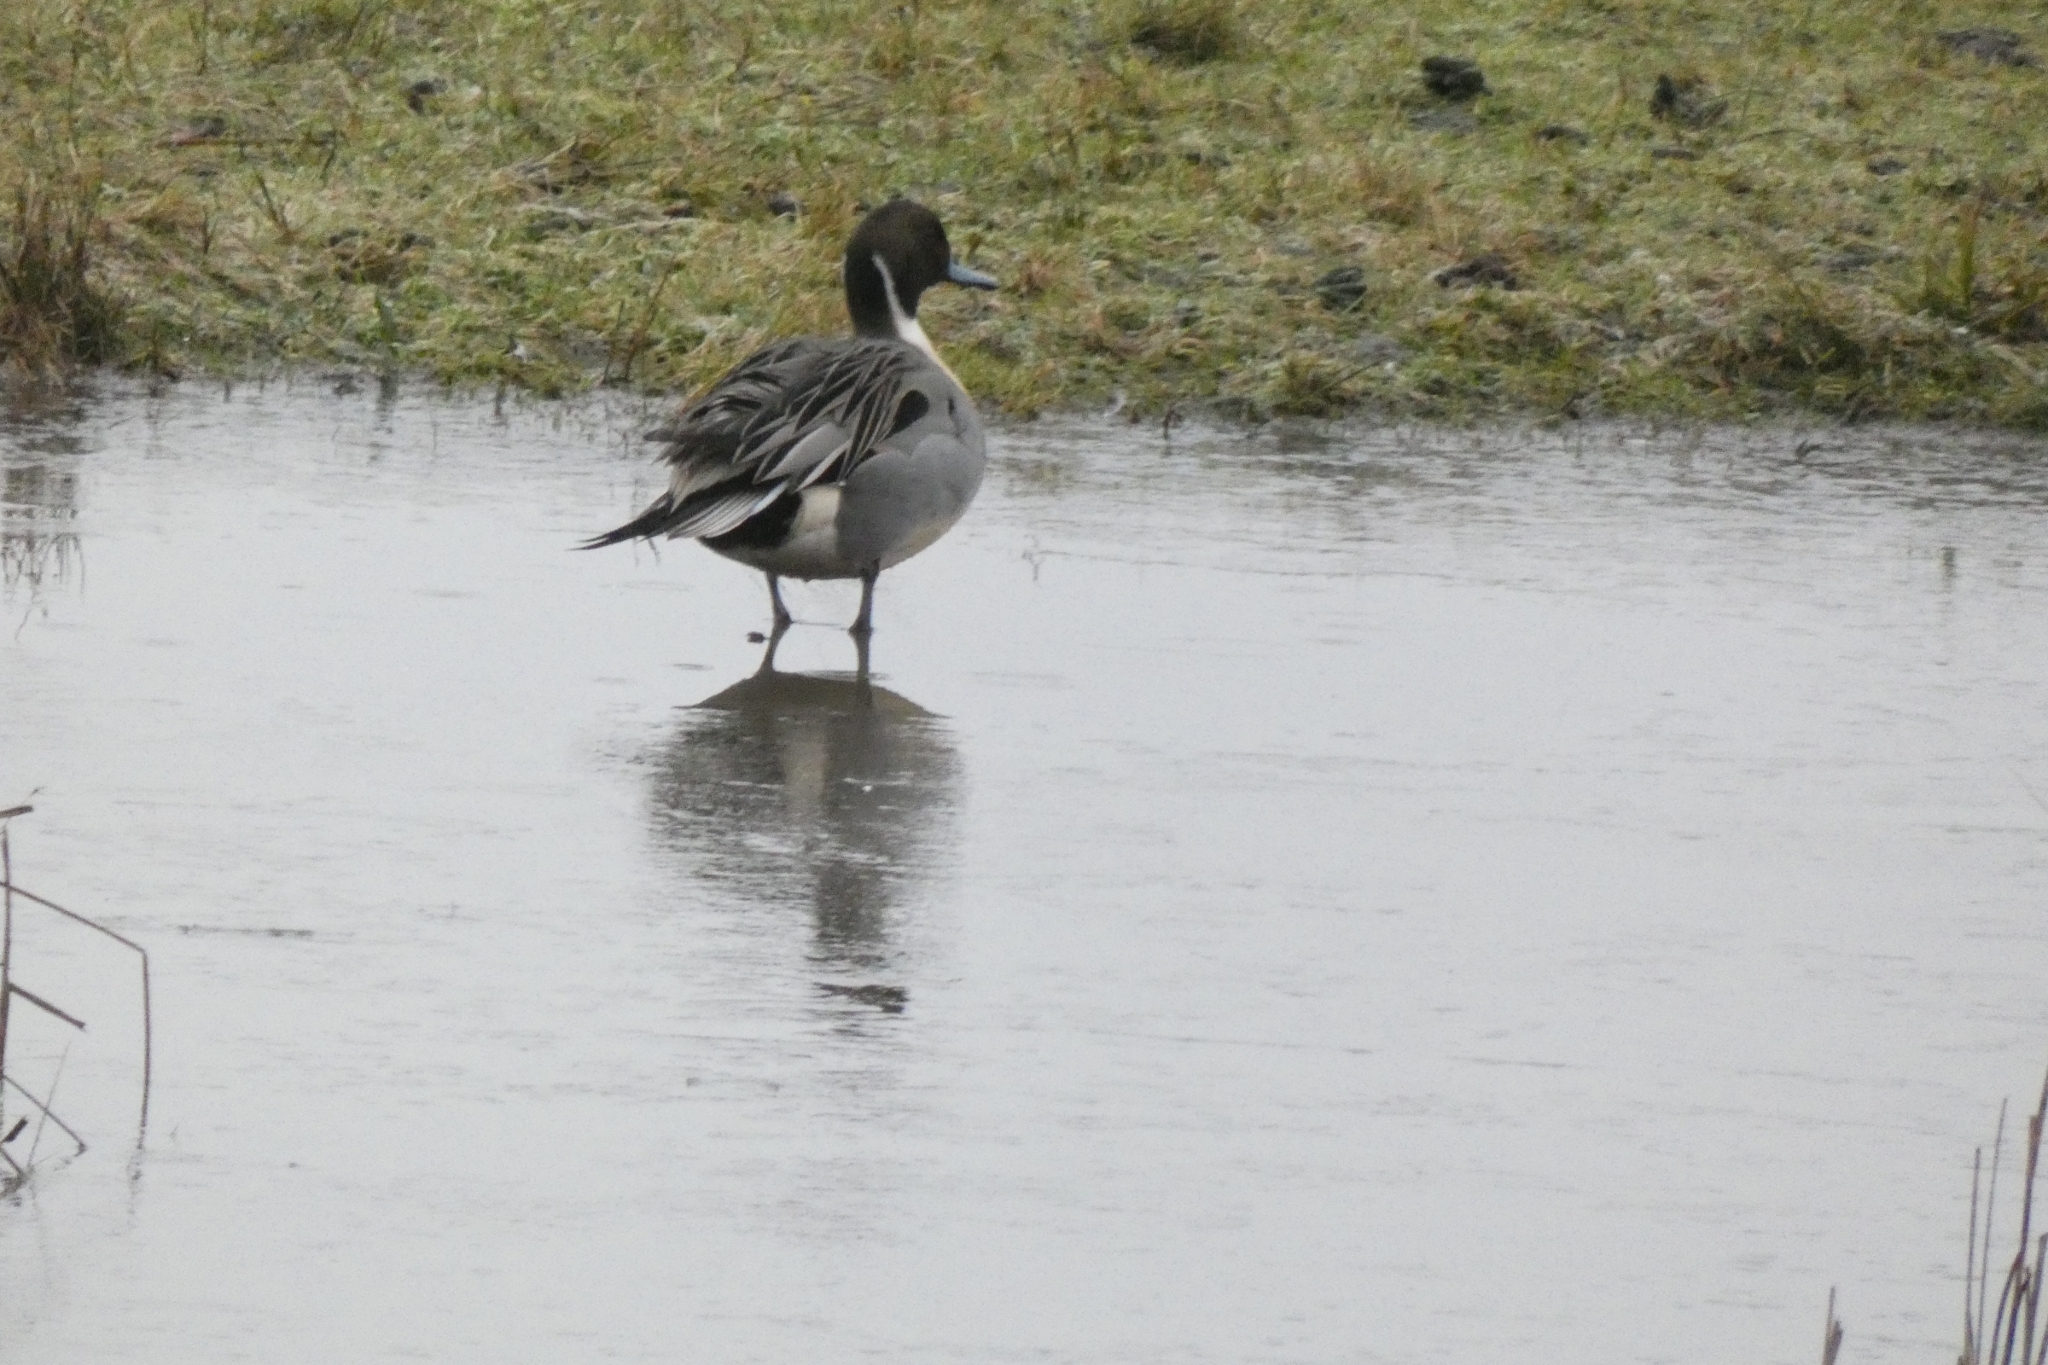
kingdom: Animalia
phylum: Chordata
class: Aves
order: Anseriformes
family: Anatidae
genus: Anas
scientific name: Anas acuta
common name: Northern pintail
